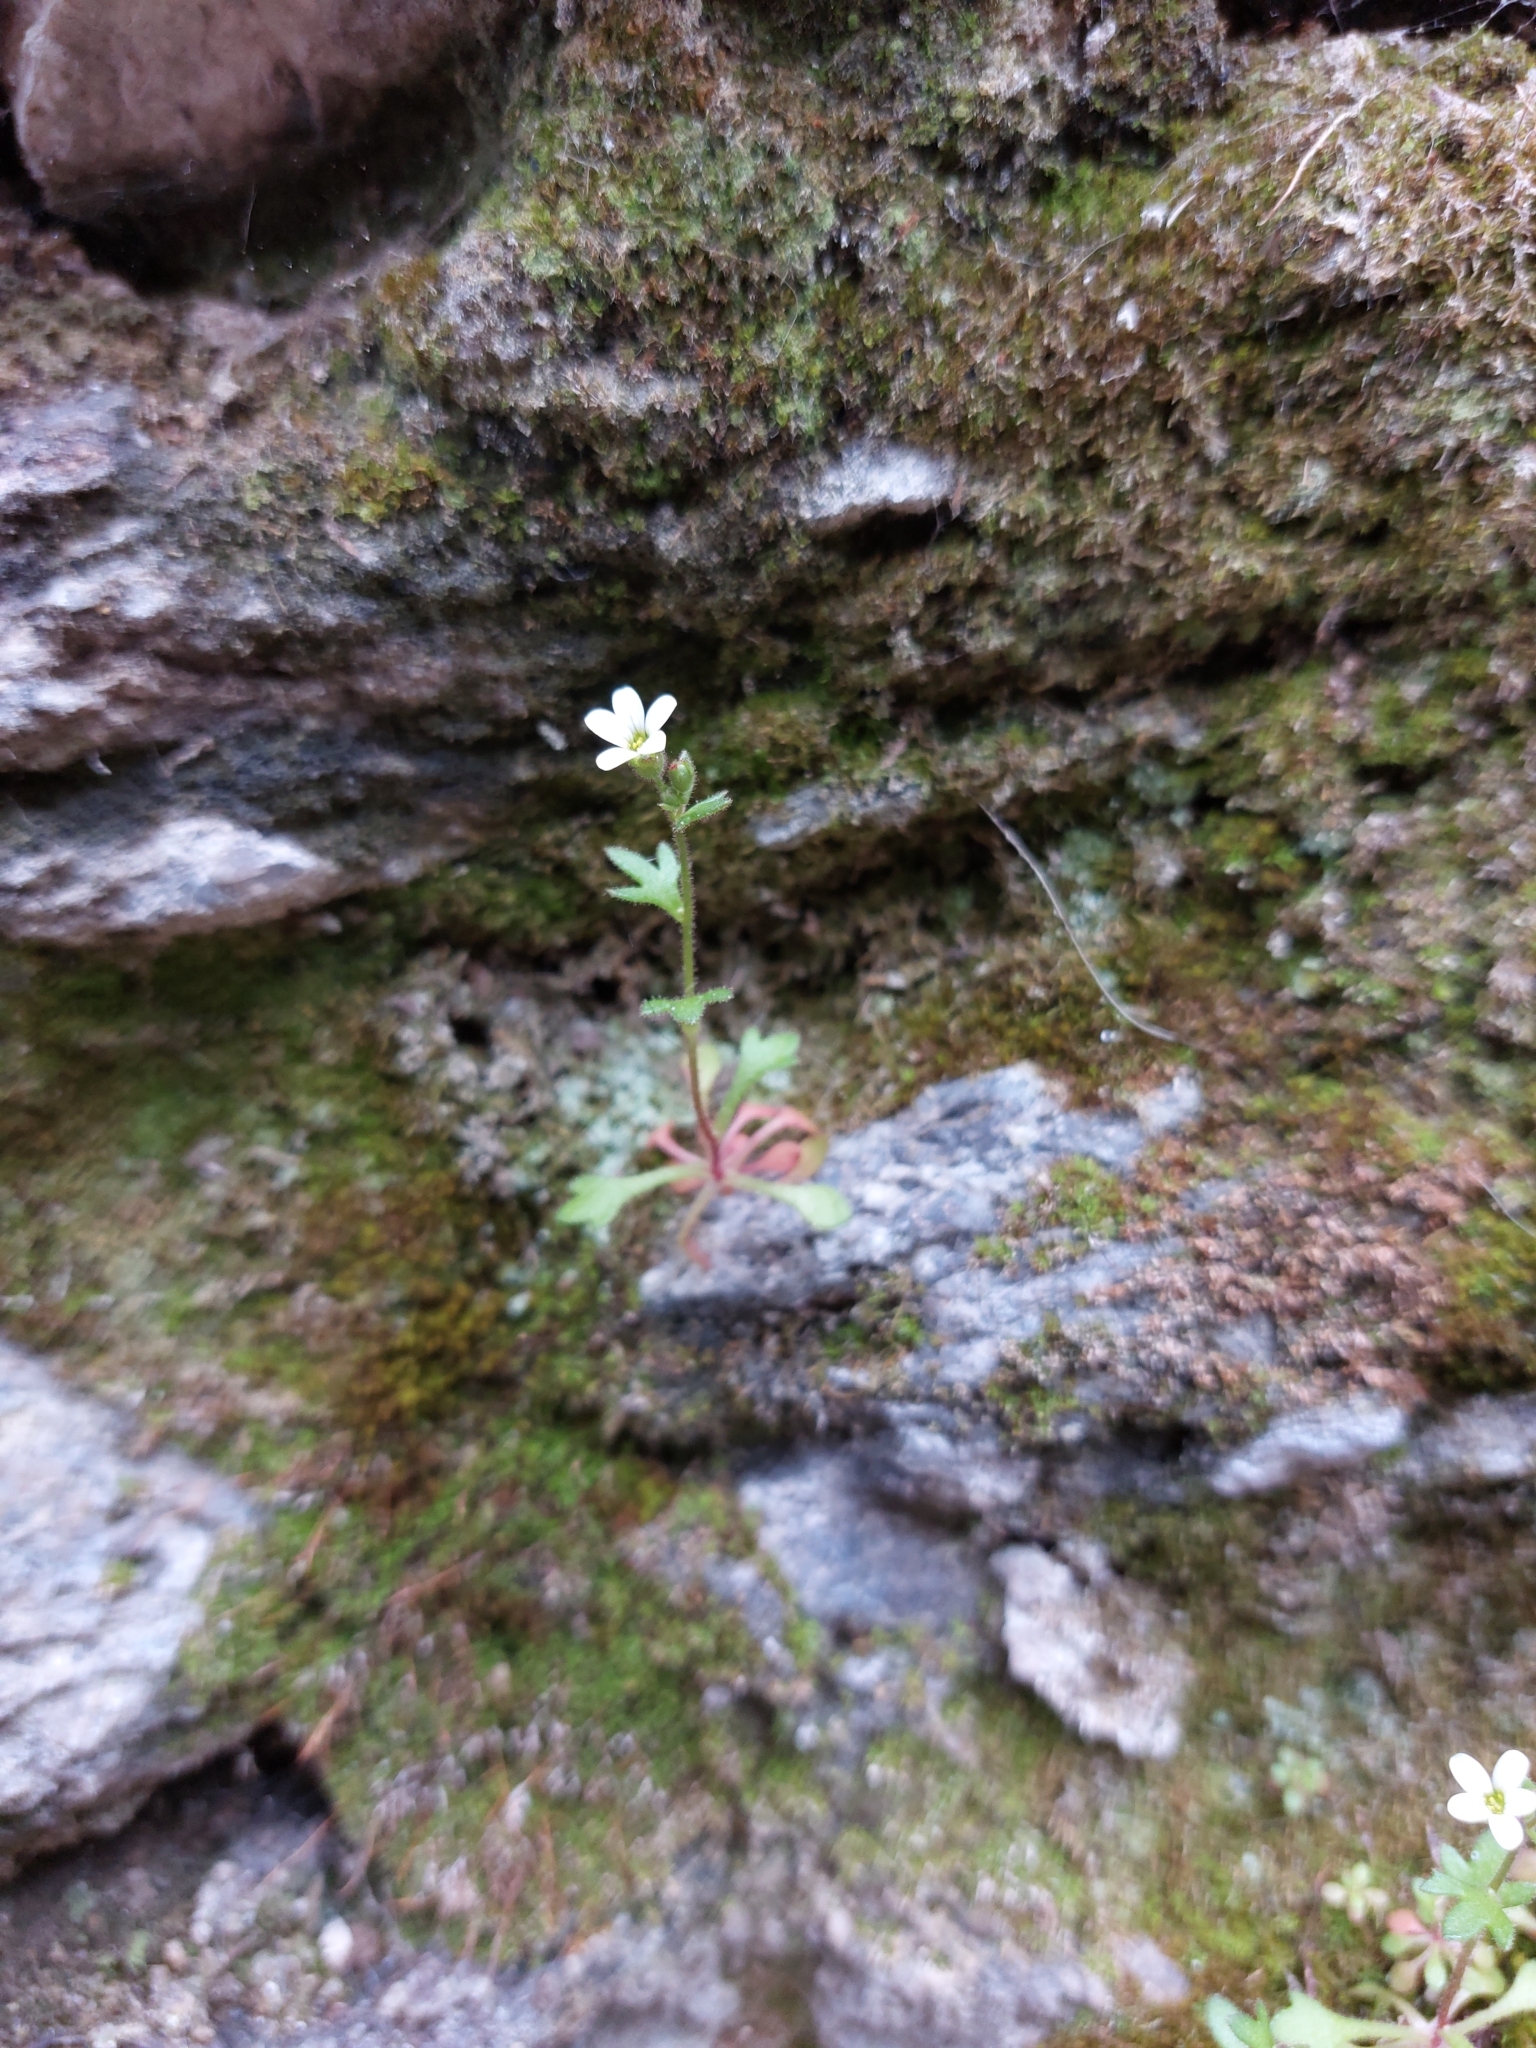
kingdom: Plantae
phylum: Tracheophyta
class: Magnoliopsida
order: Saxifragales
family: Saxifragaceae
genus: Saxifraga
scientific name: Saxifraga tridactylites
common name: Rue-leaved saxifrage
